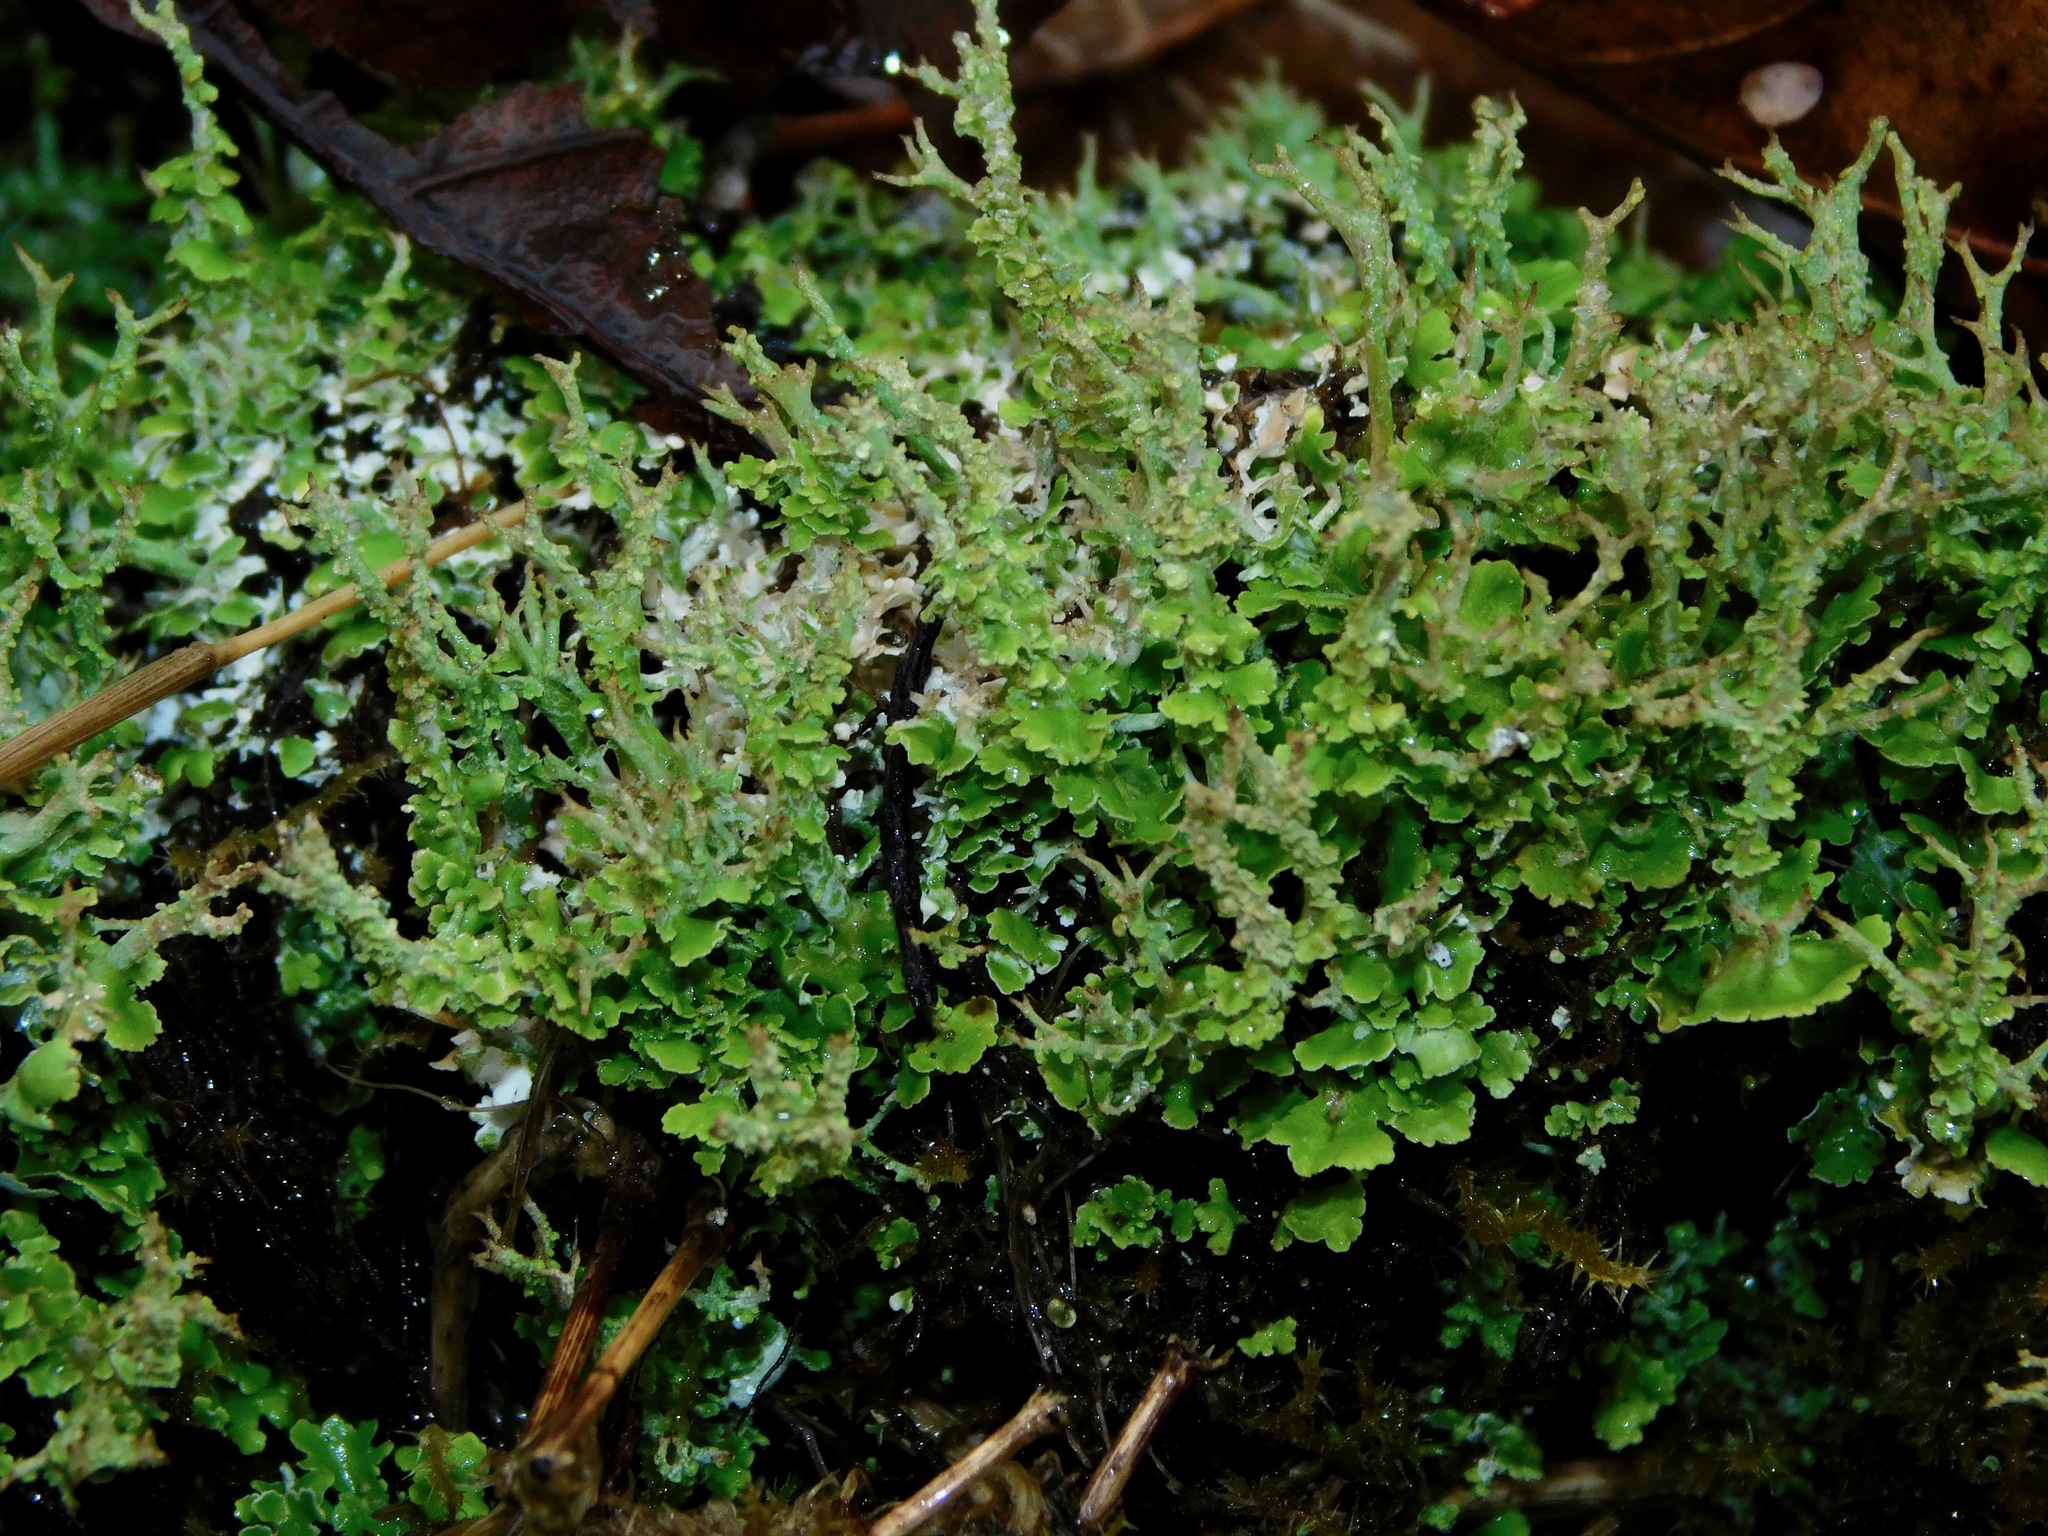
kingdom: Fungi
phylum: Ascomycota
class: Lecanoromycetes
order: Lecanorales
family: Cladoniaceae
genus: Cladonia
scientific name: Cladonia squamosa
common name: Dragon horn
